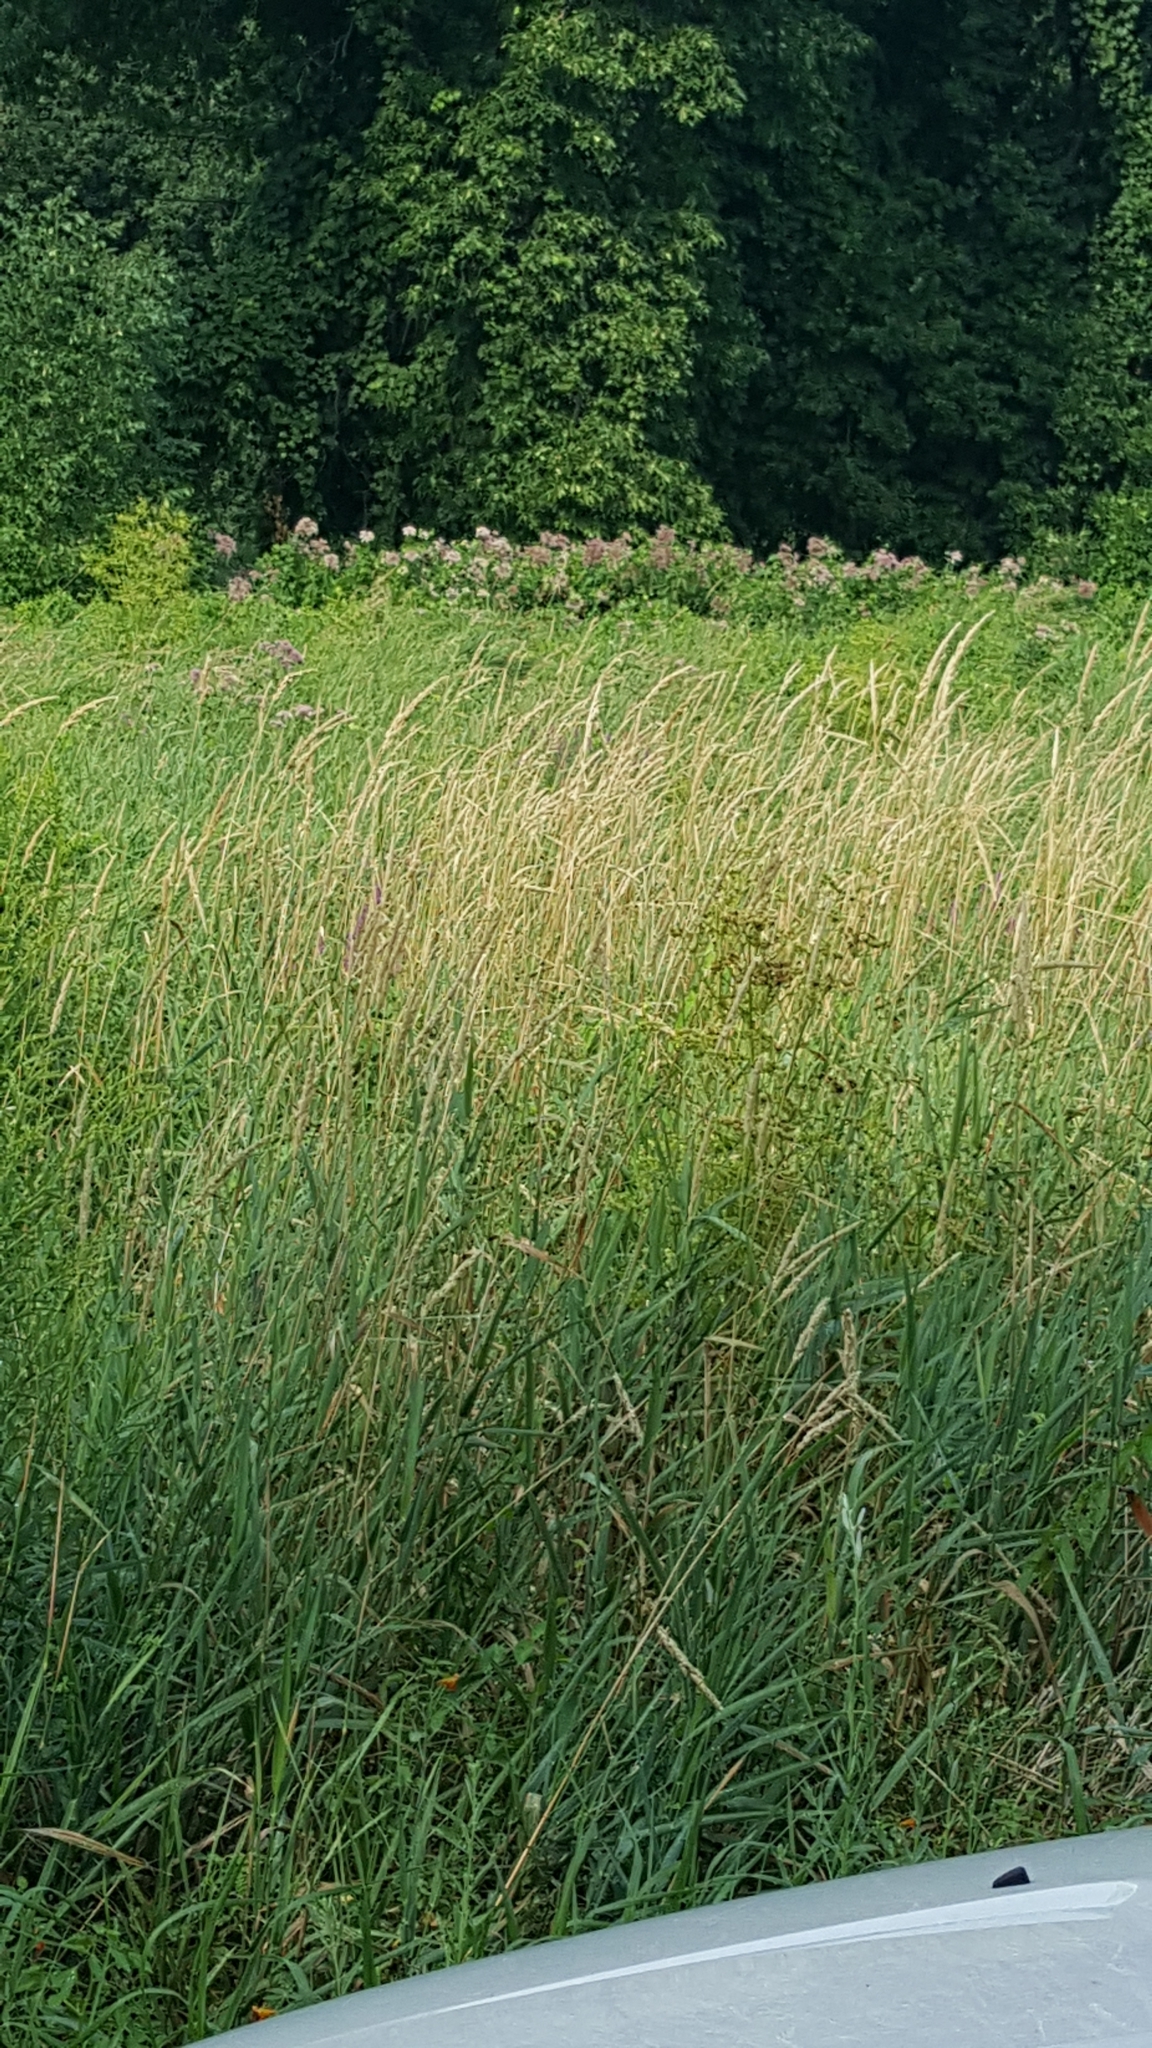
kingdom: Plantae
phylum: Tracheophyta
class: Liliopsida
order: Poales
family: Poaceae
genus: Phalaris
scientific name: Phalaris arundinacea
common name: Reed canary-grass
